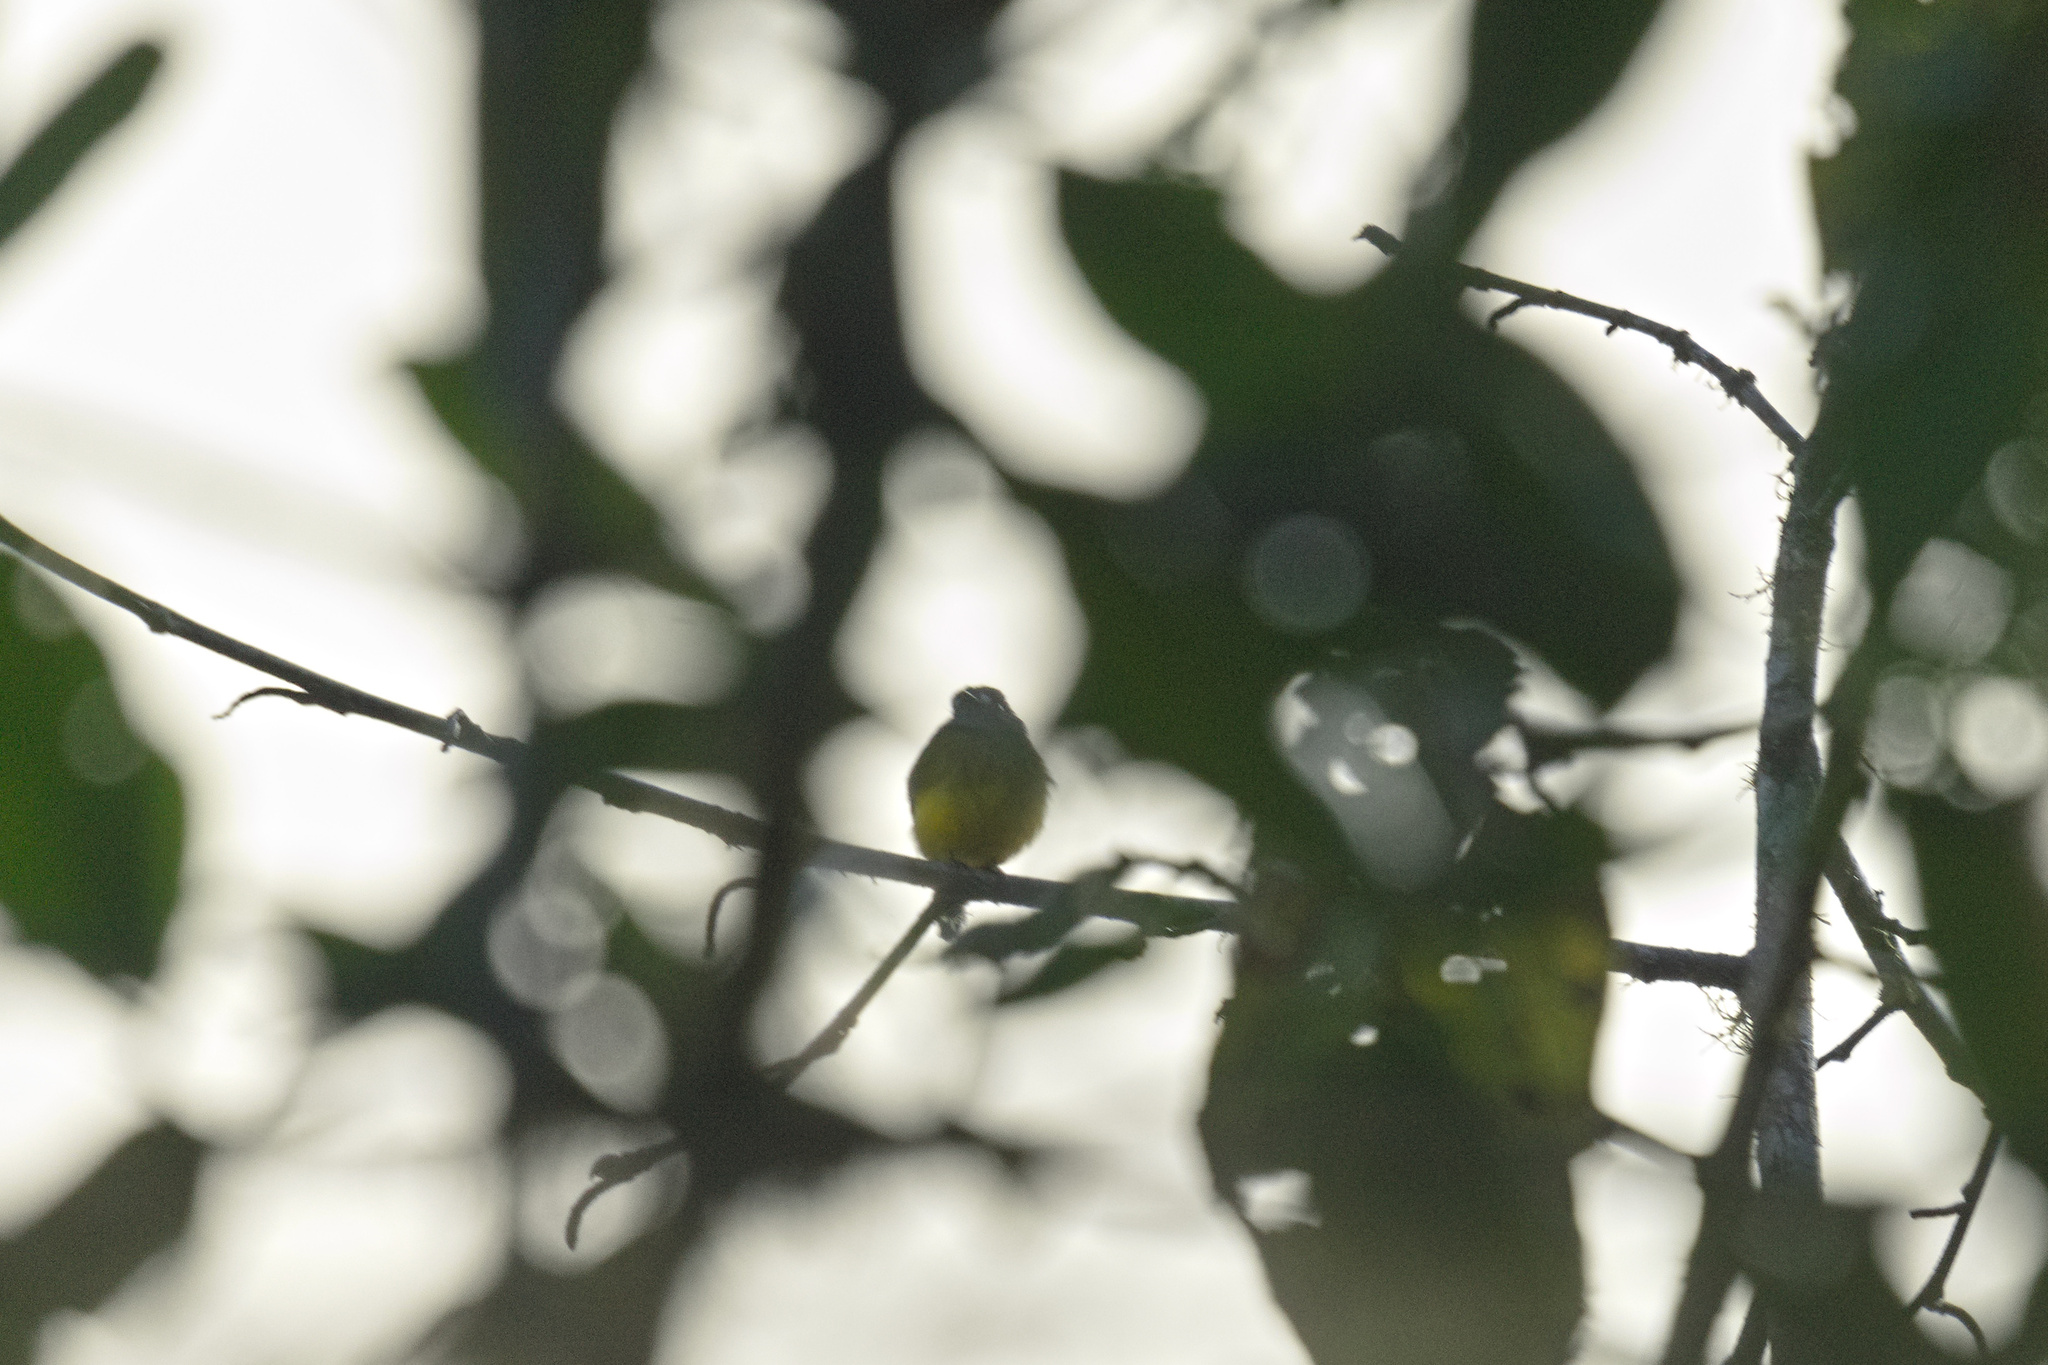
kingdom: Animalia
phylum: Chordata
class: Aves
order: Passeriformes
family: Tyrannidae
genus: Myiotriccus
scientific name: Myiotriccus ornatus
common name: Ornate flycatcher
